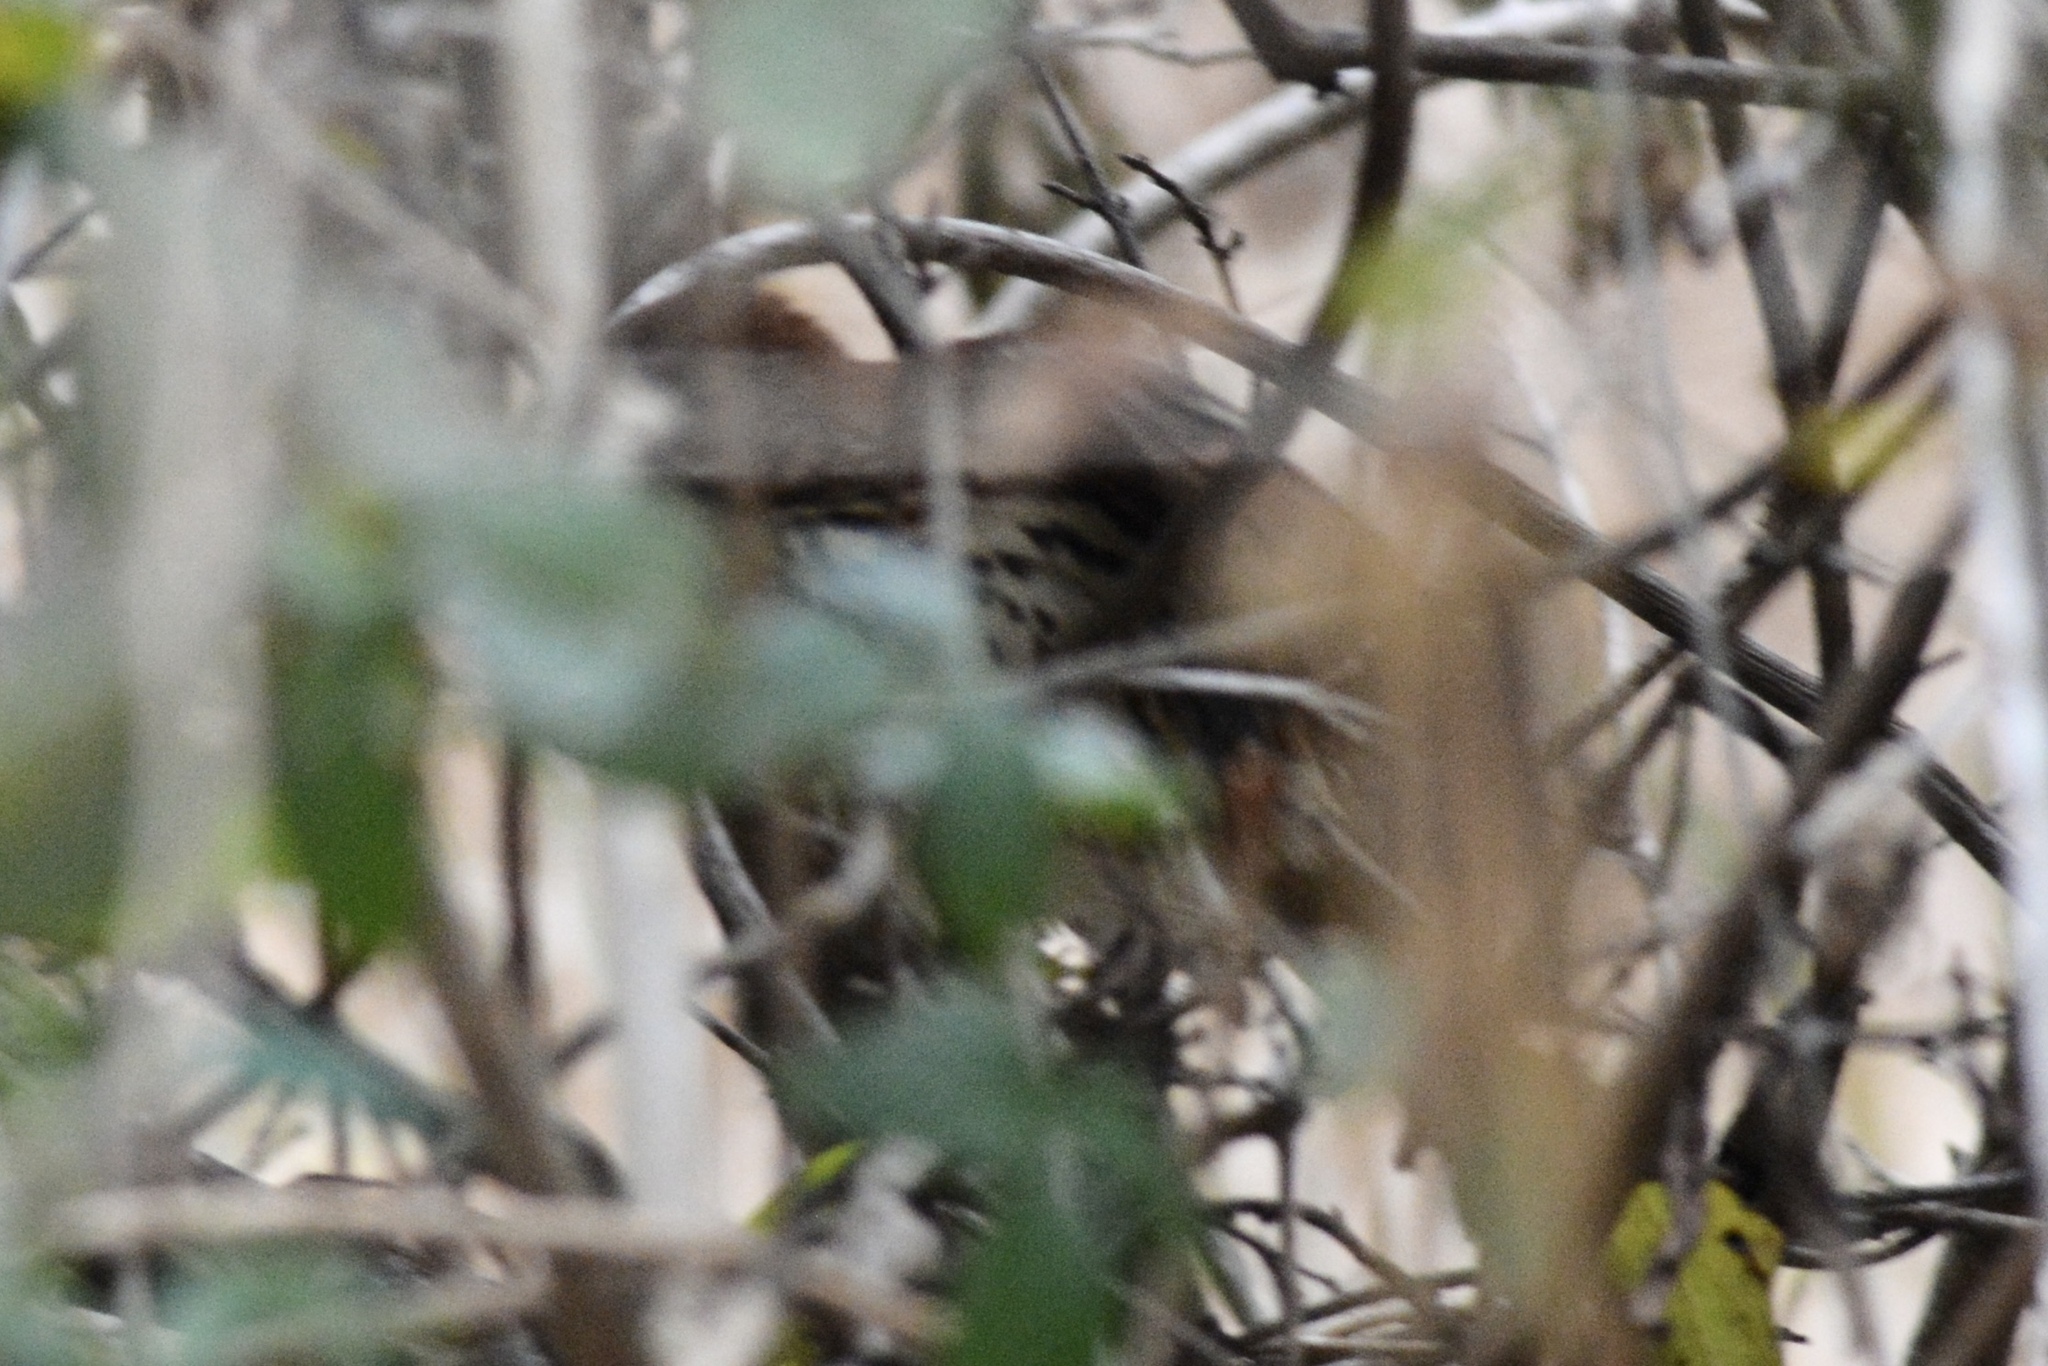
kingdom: Animalia
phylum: Chordata
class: Aves
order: Passeriformes
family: Mimidae
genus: Toxostoma
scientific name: Toxostoma rufum
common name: Brown thrasher
